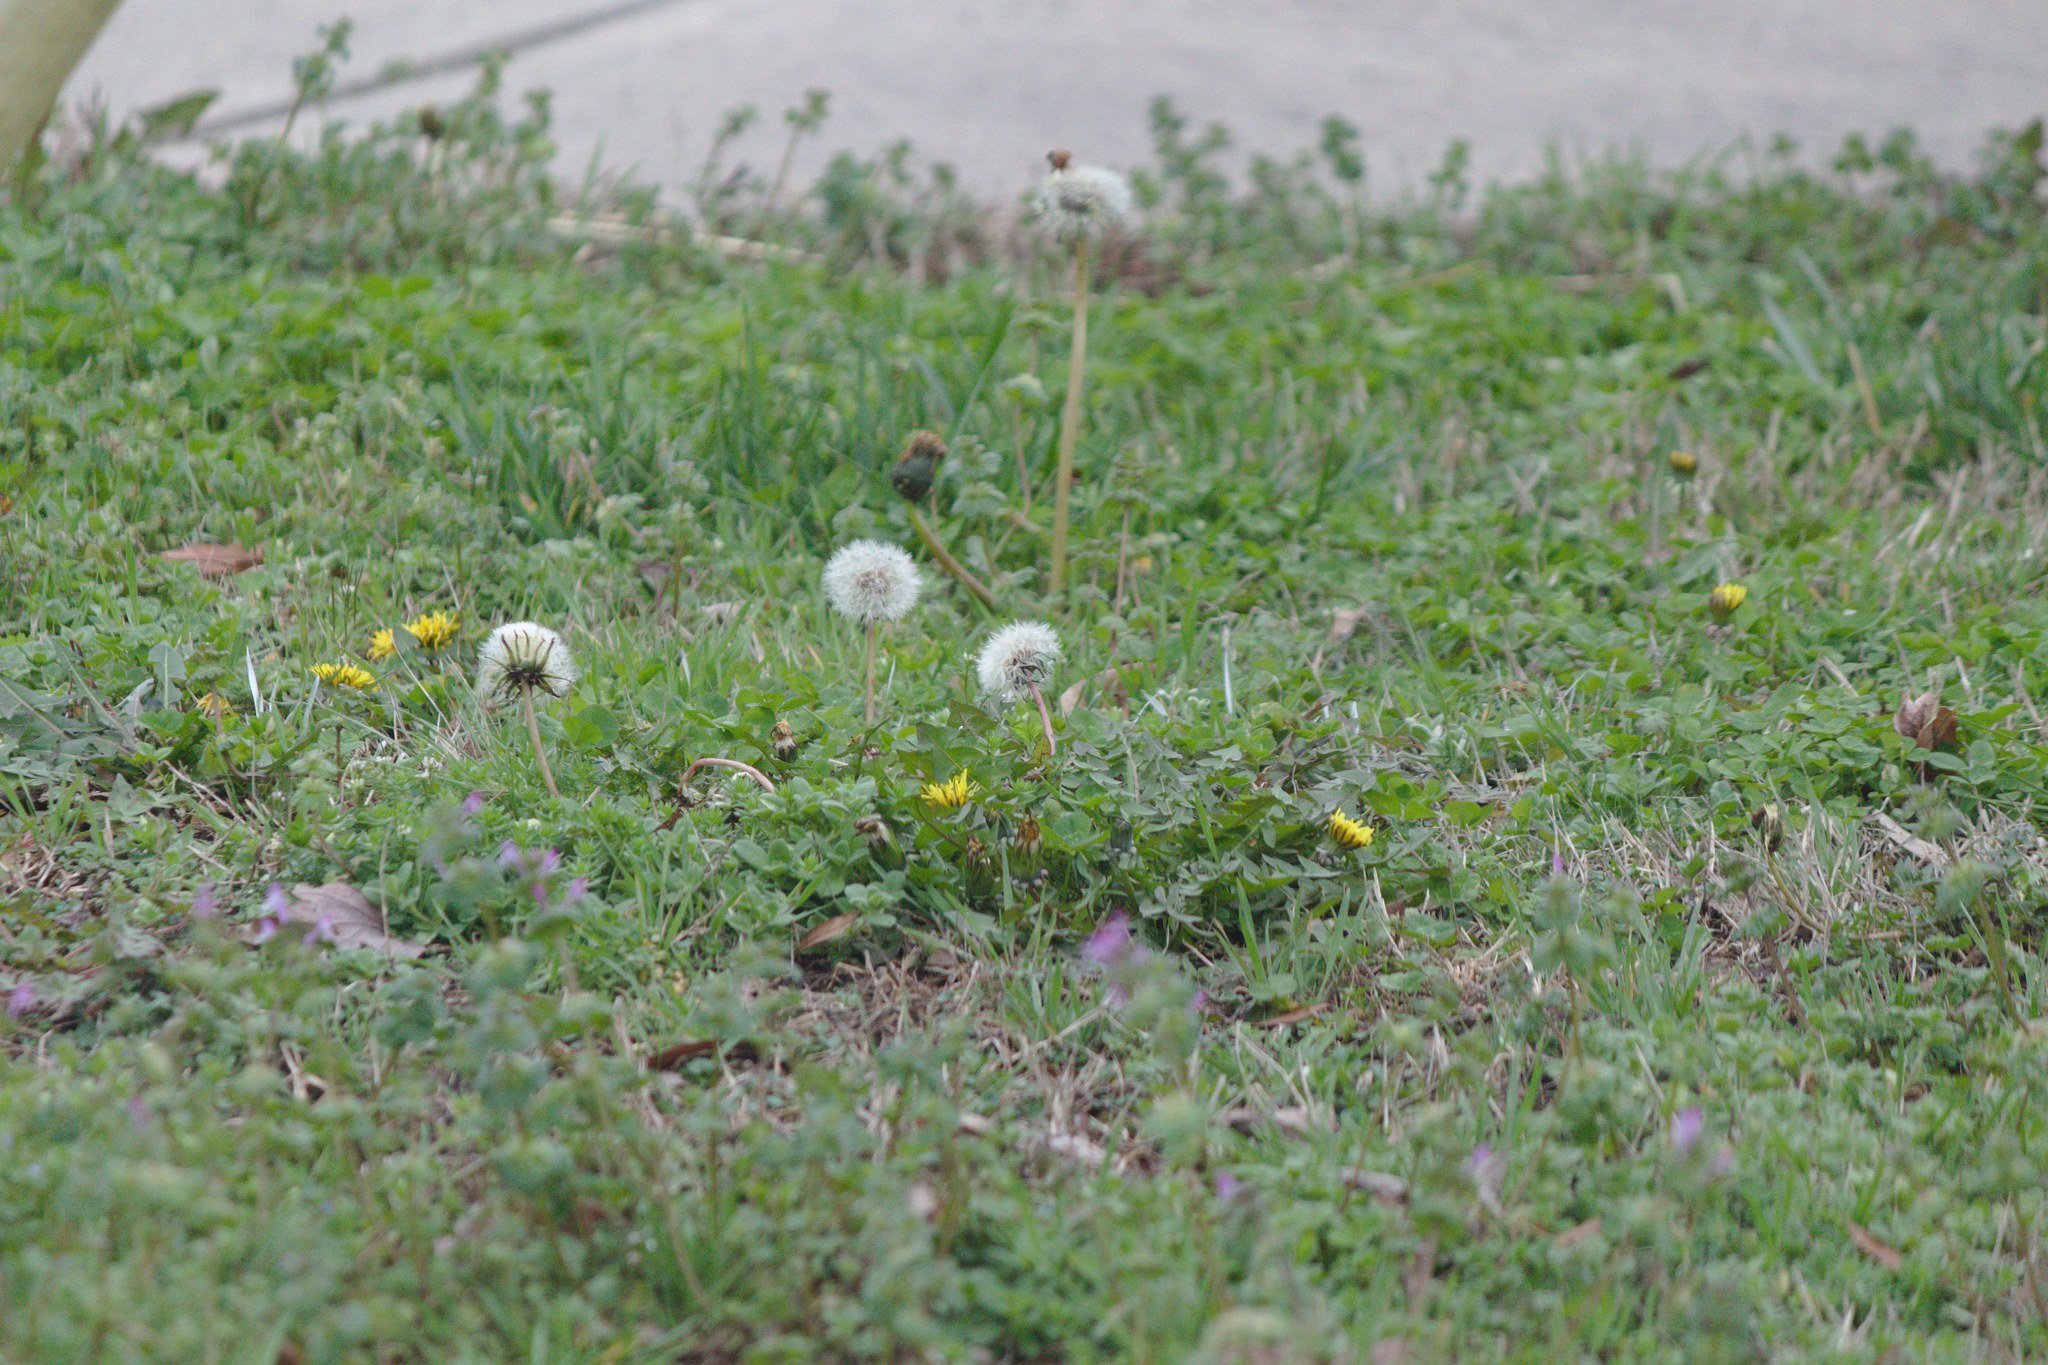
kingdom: Plantae
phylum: Tracheophyta
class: Magnoliopsida
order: Asterales
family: Asteraceae
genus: Taraxacum
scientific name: Taraxacum officinale
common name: Common dandelion
